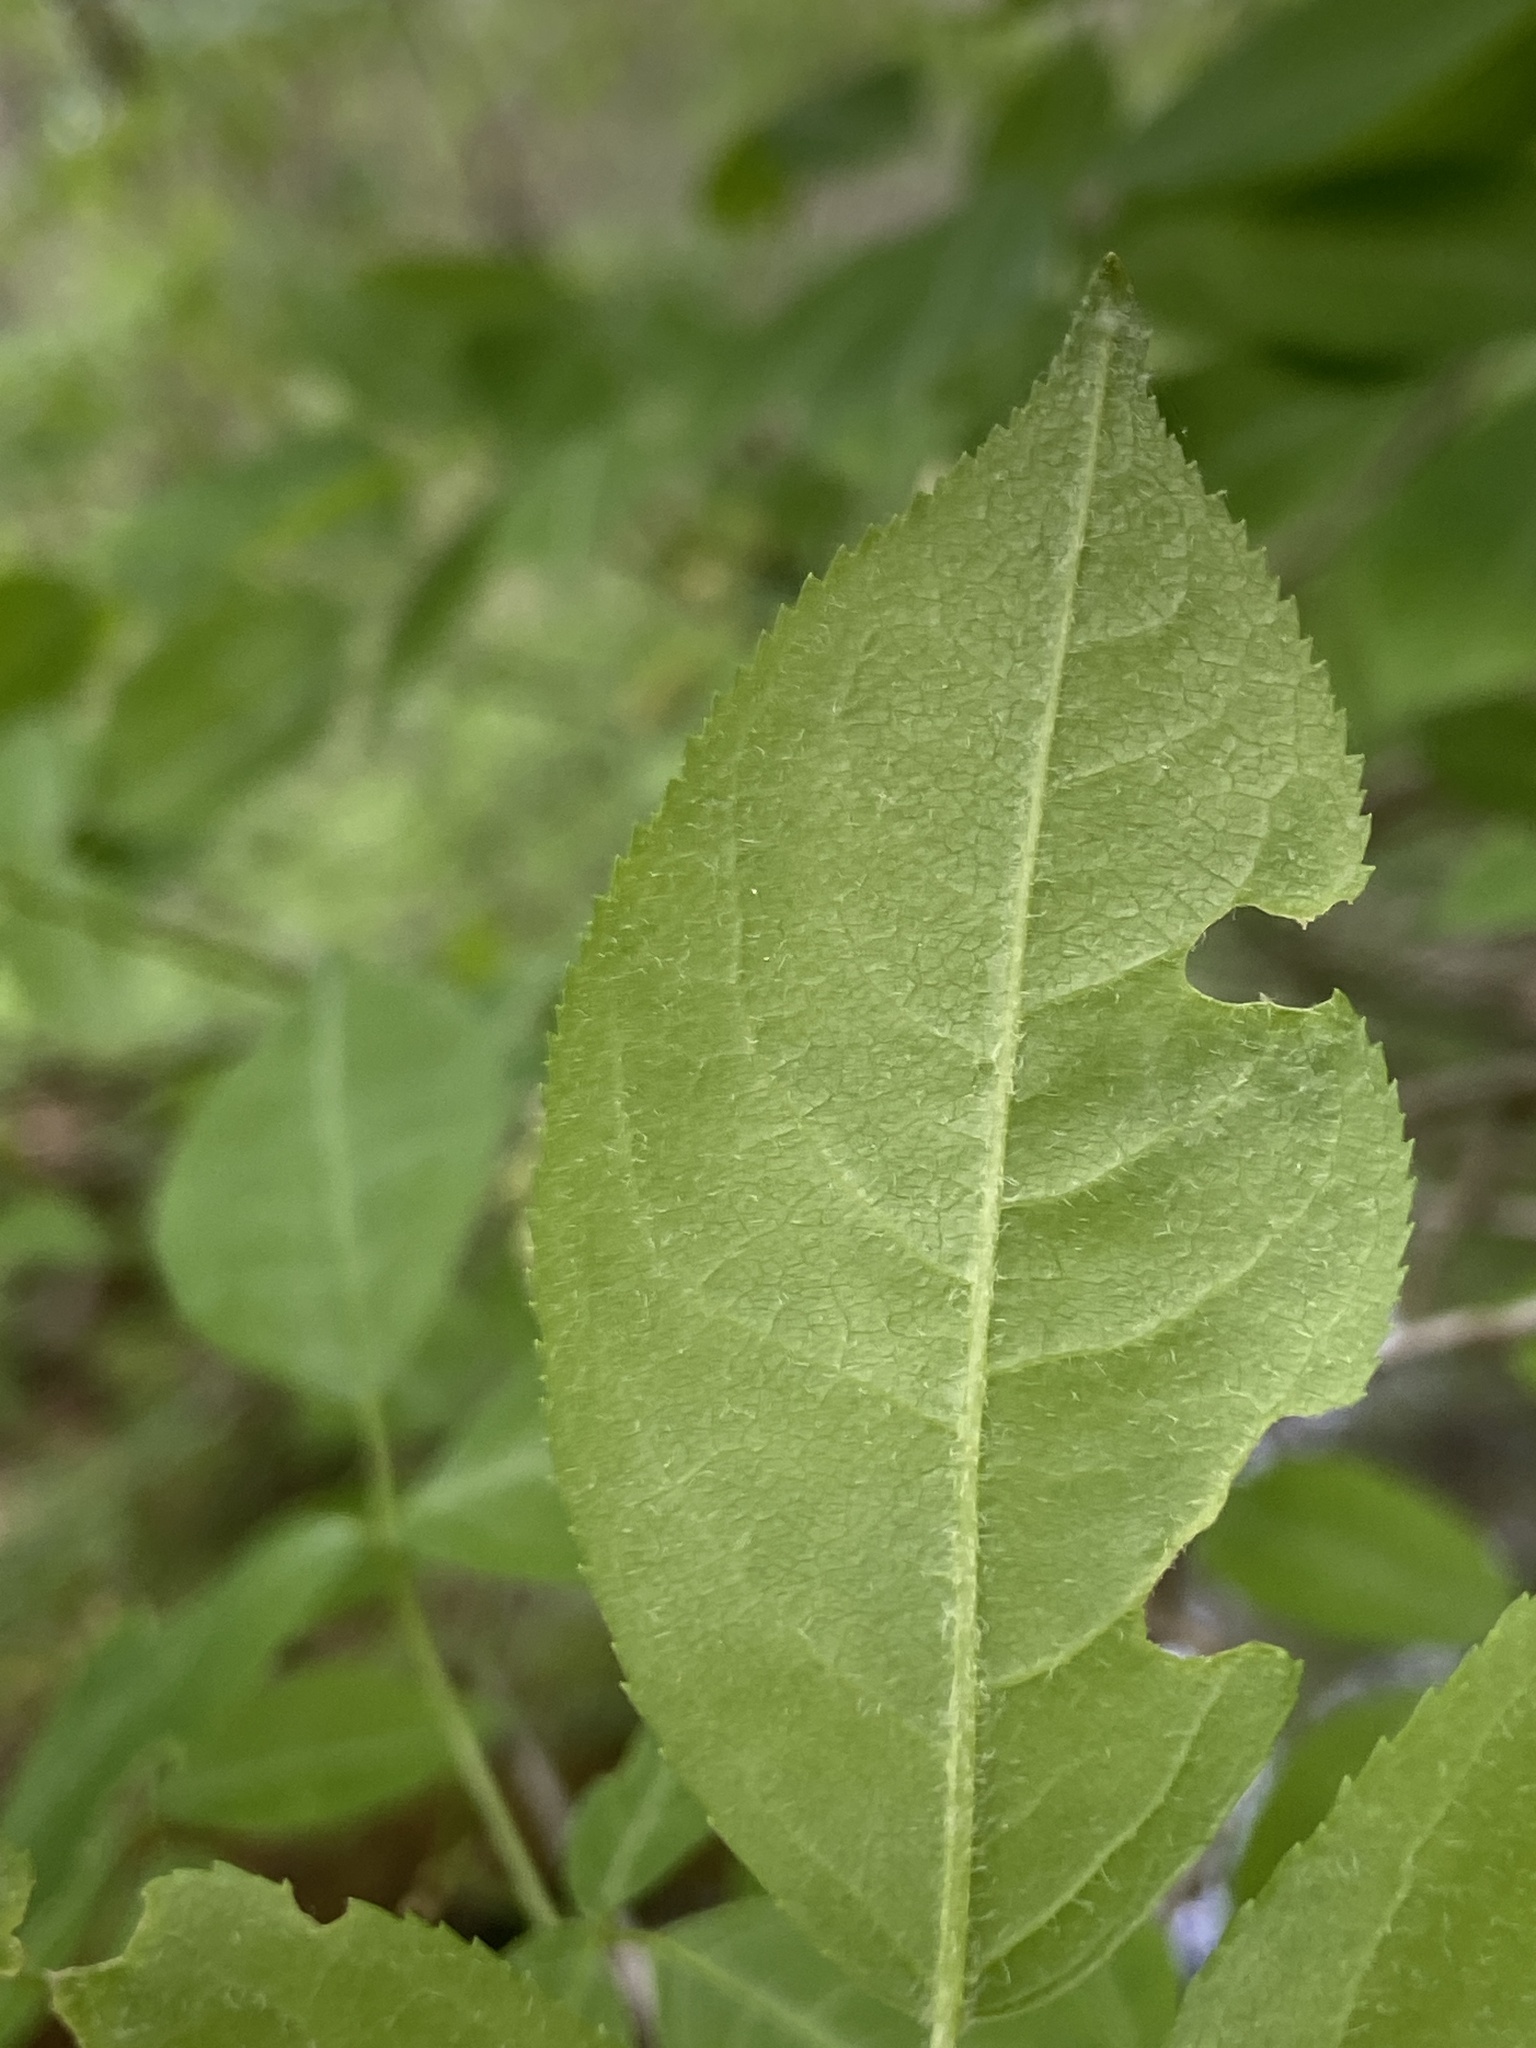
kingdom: Plantae
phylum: Tracheophyta
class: Magnoliopsida
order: Crossosomatales
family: Staphyleaceae
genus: Staphylea
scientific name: Staphylea trifolia
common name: American bladdernut
